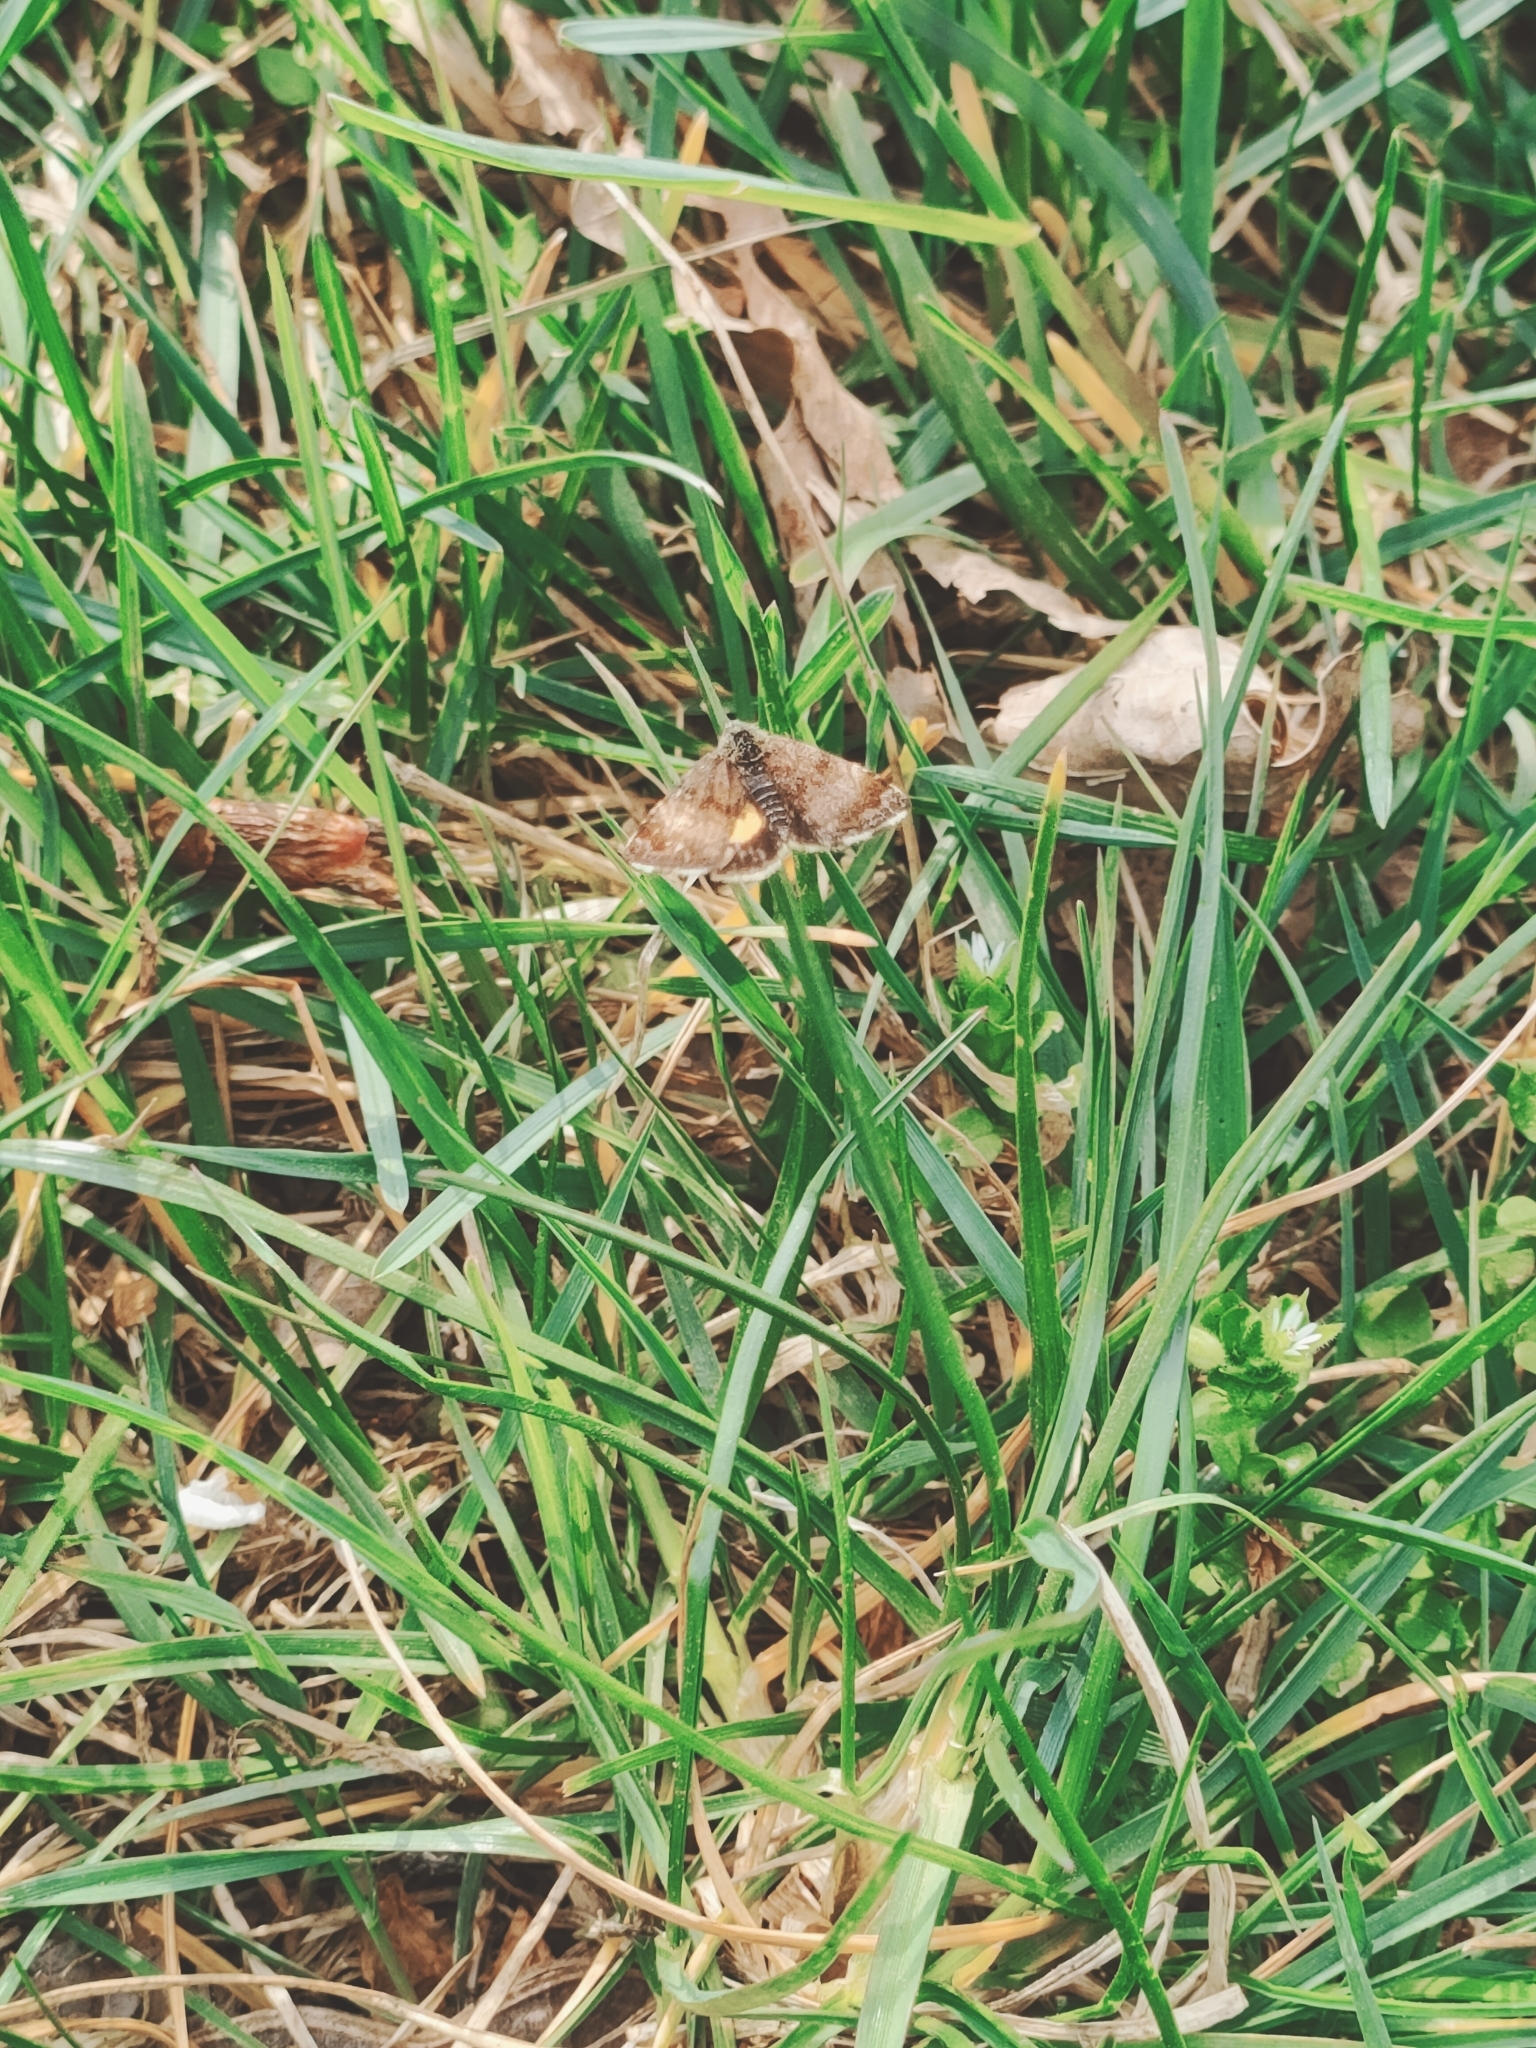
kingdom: Animalia
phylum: Arthropoda
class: Insecta
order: Lepidoptera
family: Noctuidae
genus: Panemeria
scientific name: Panemeria tenebrata
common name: Small yellow underwing
